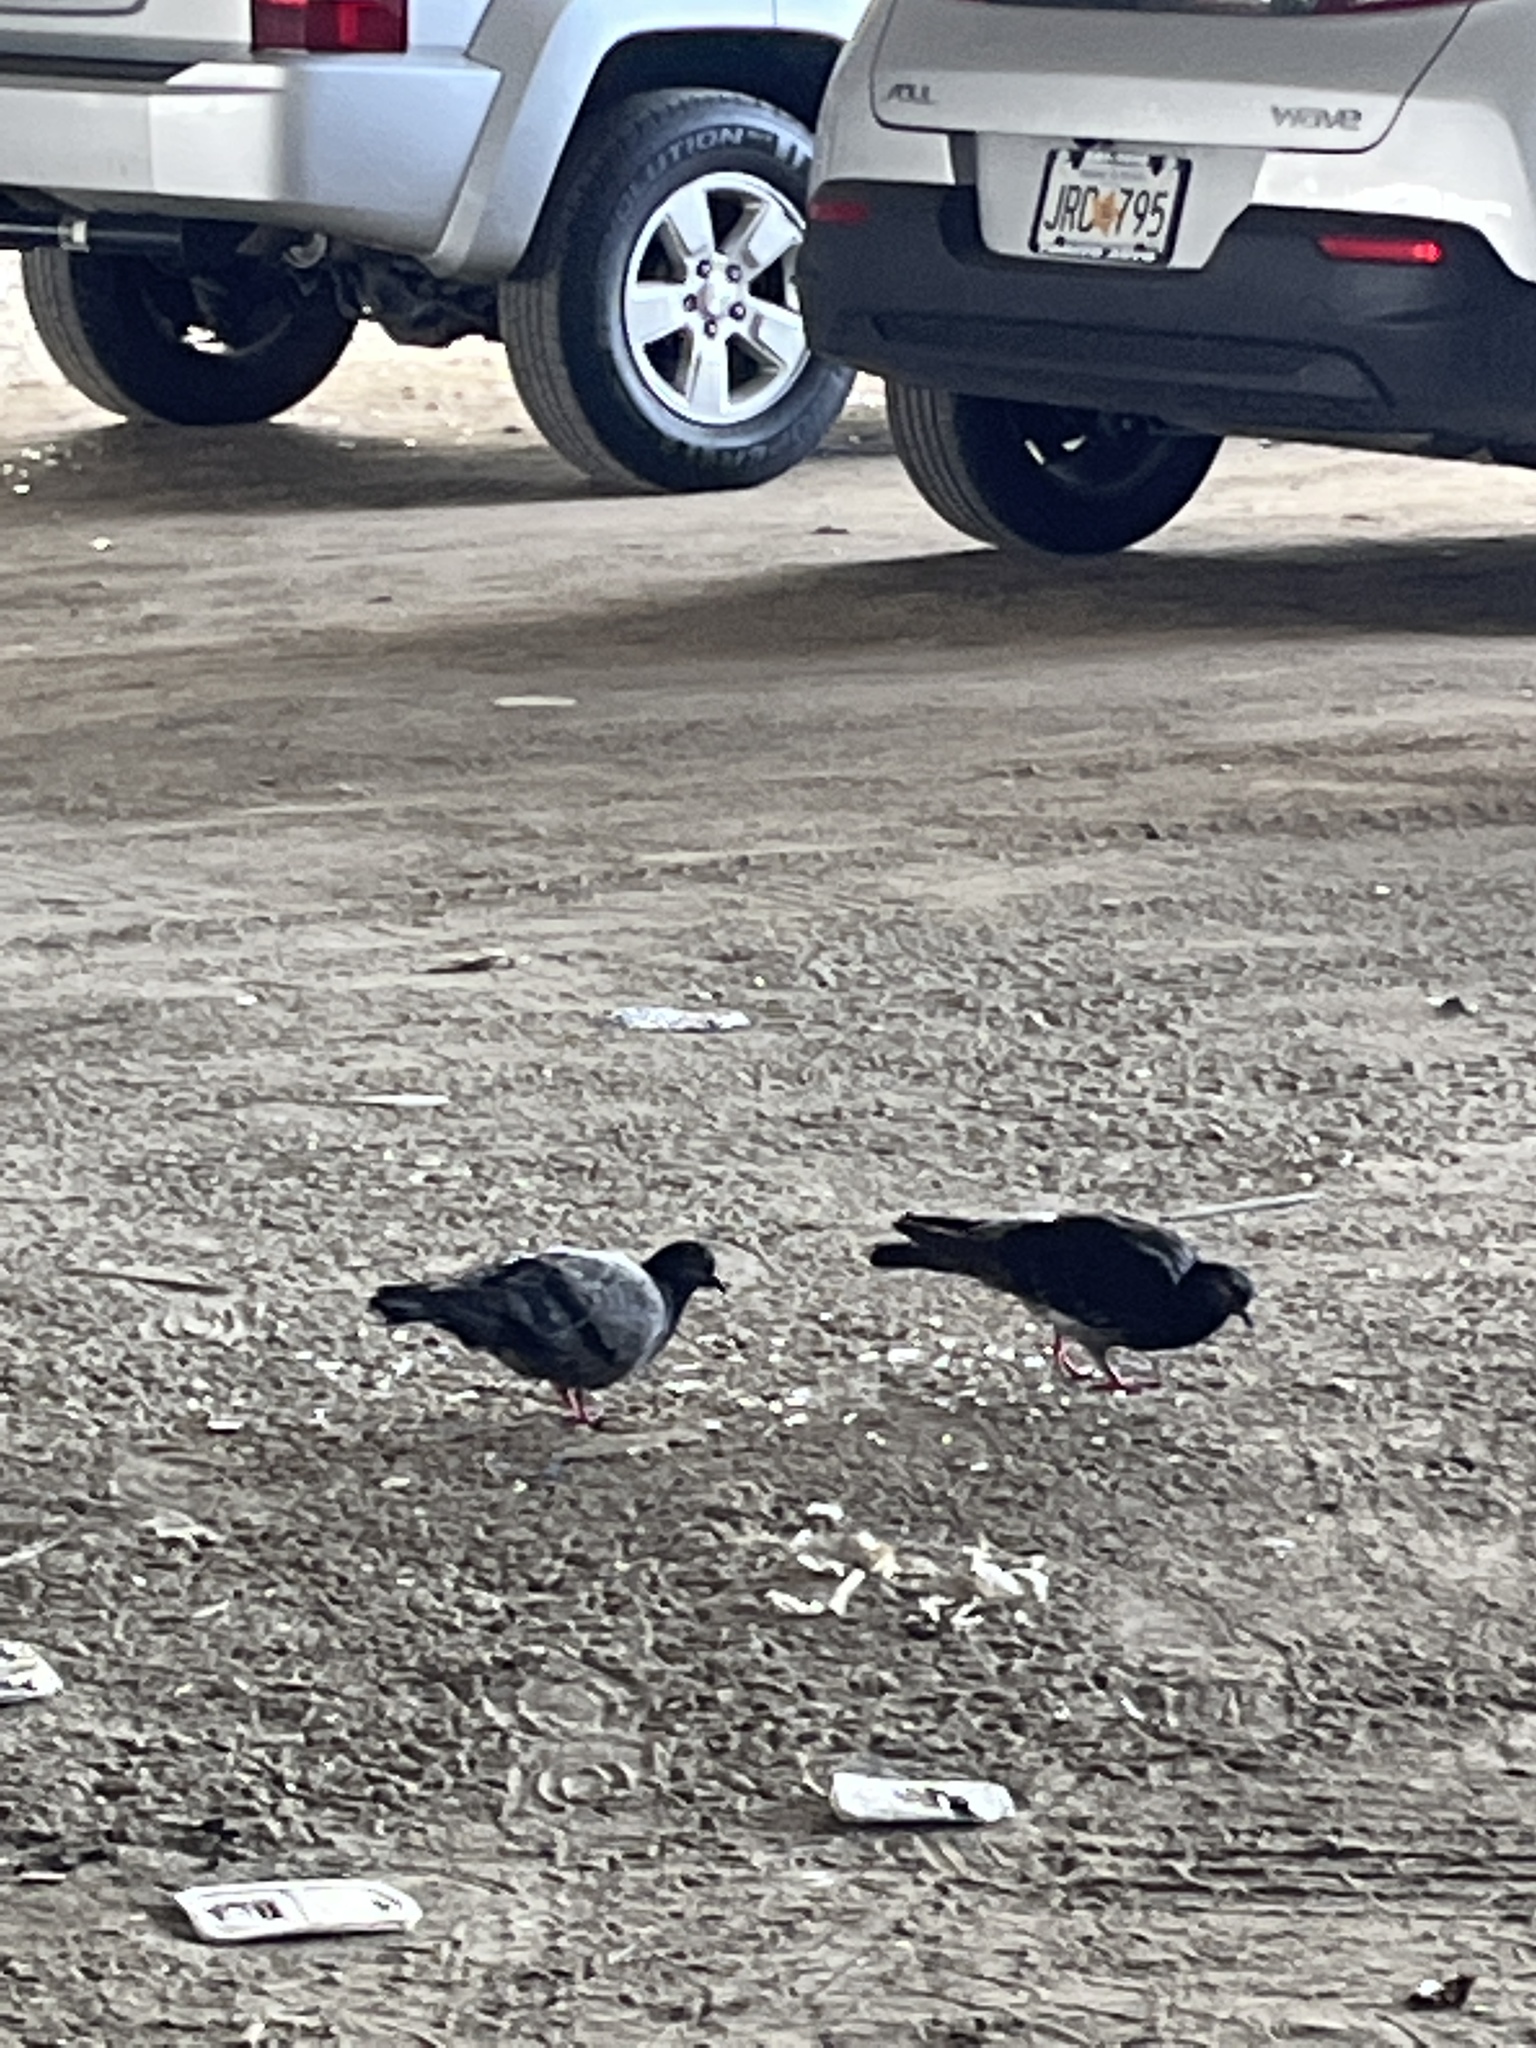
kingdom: Animalia
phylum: Chordata
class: Aves
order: Columbiformes
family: Columbidae
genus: Columba
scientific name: Columba livia
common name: Rock pigeon
